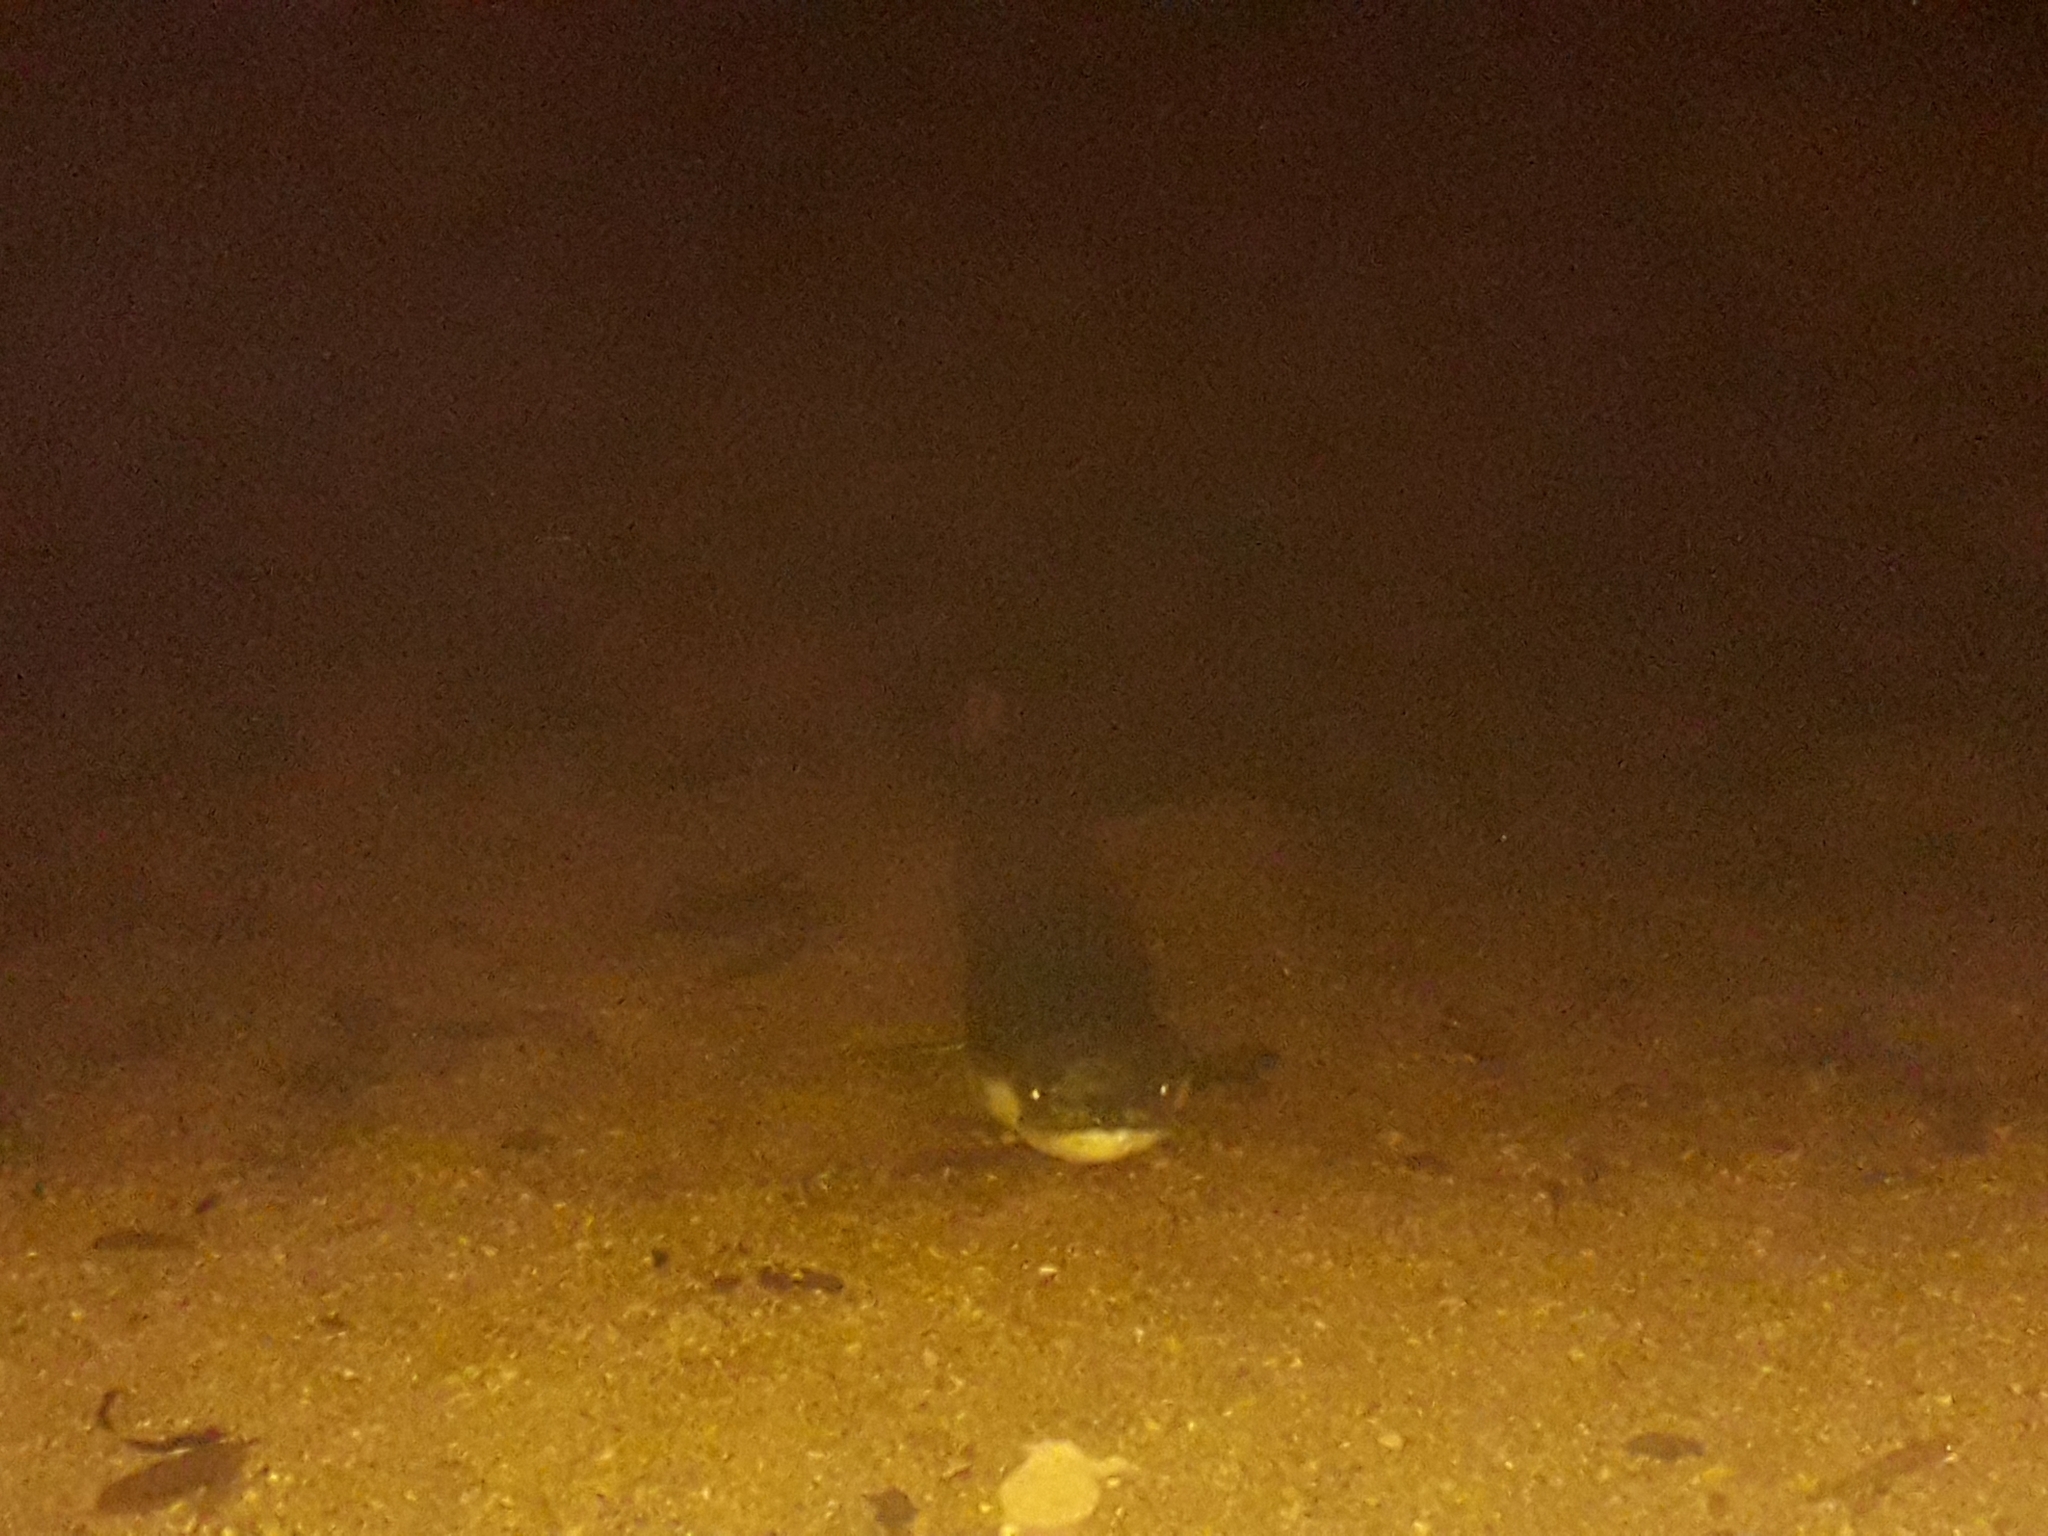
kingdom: Animalia
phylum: Chordata
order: Anguilliformes
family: Anguillidae
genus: Anguilla
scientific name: Anguilla dieffenbachii
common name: New zealand longfin eel
